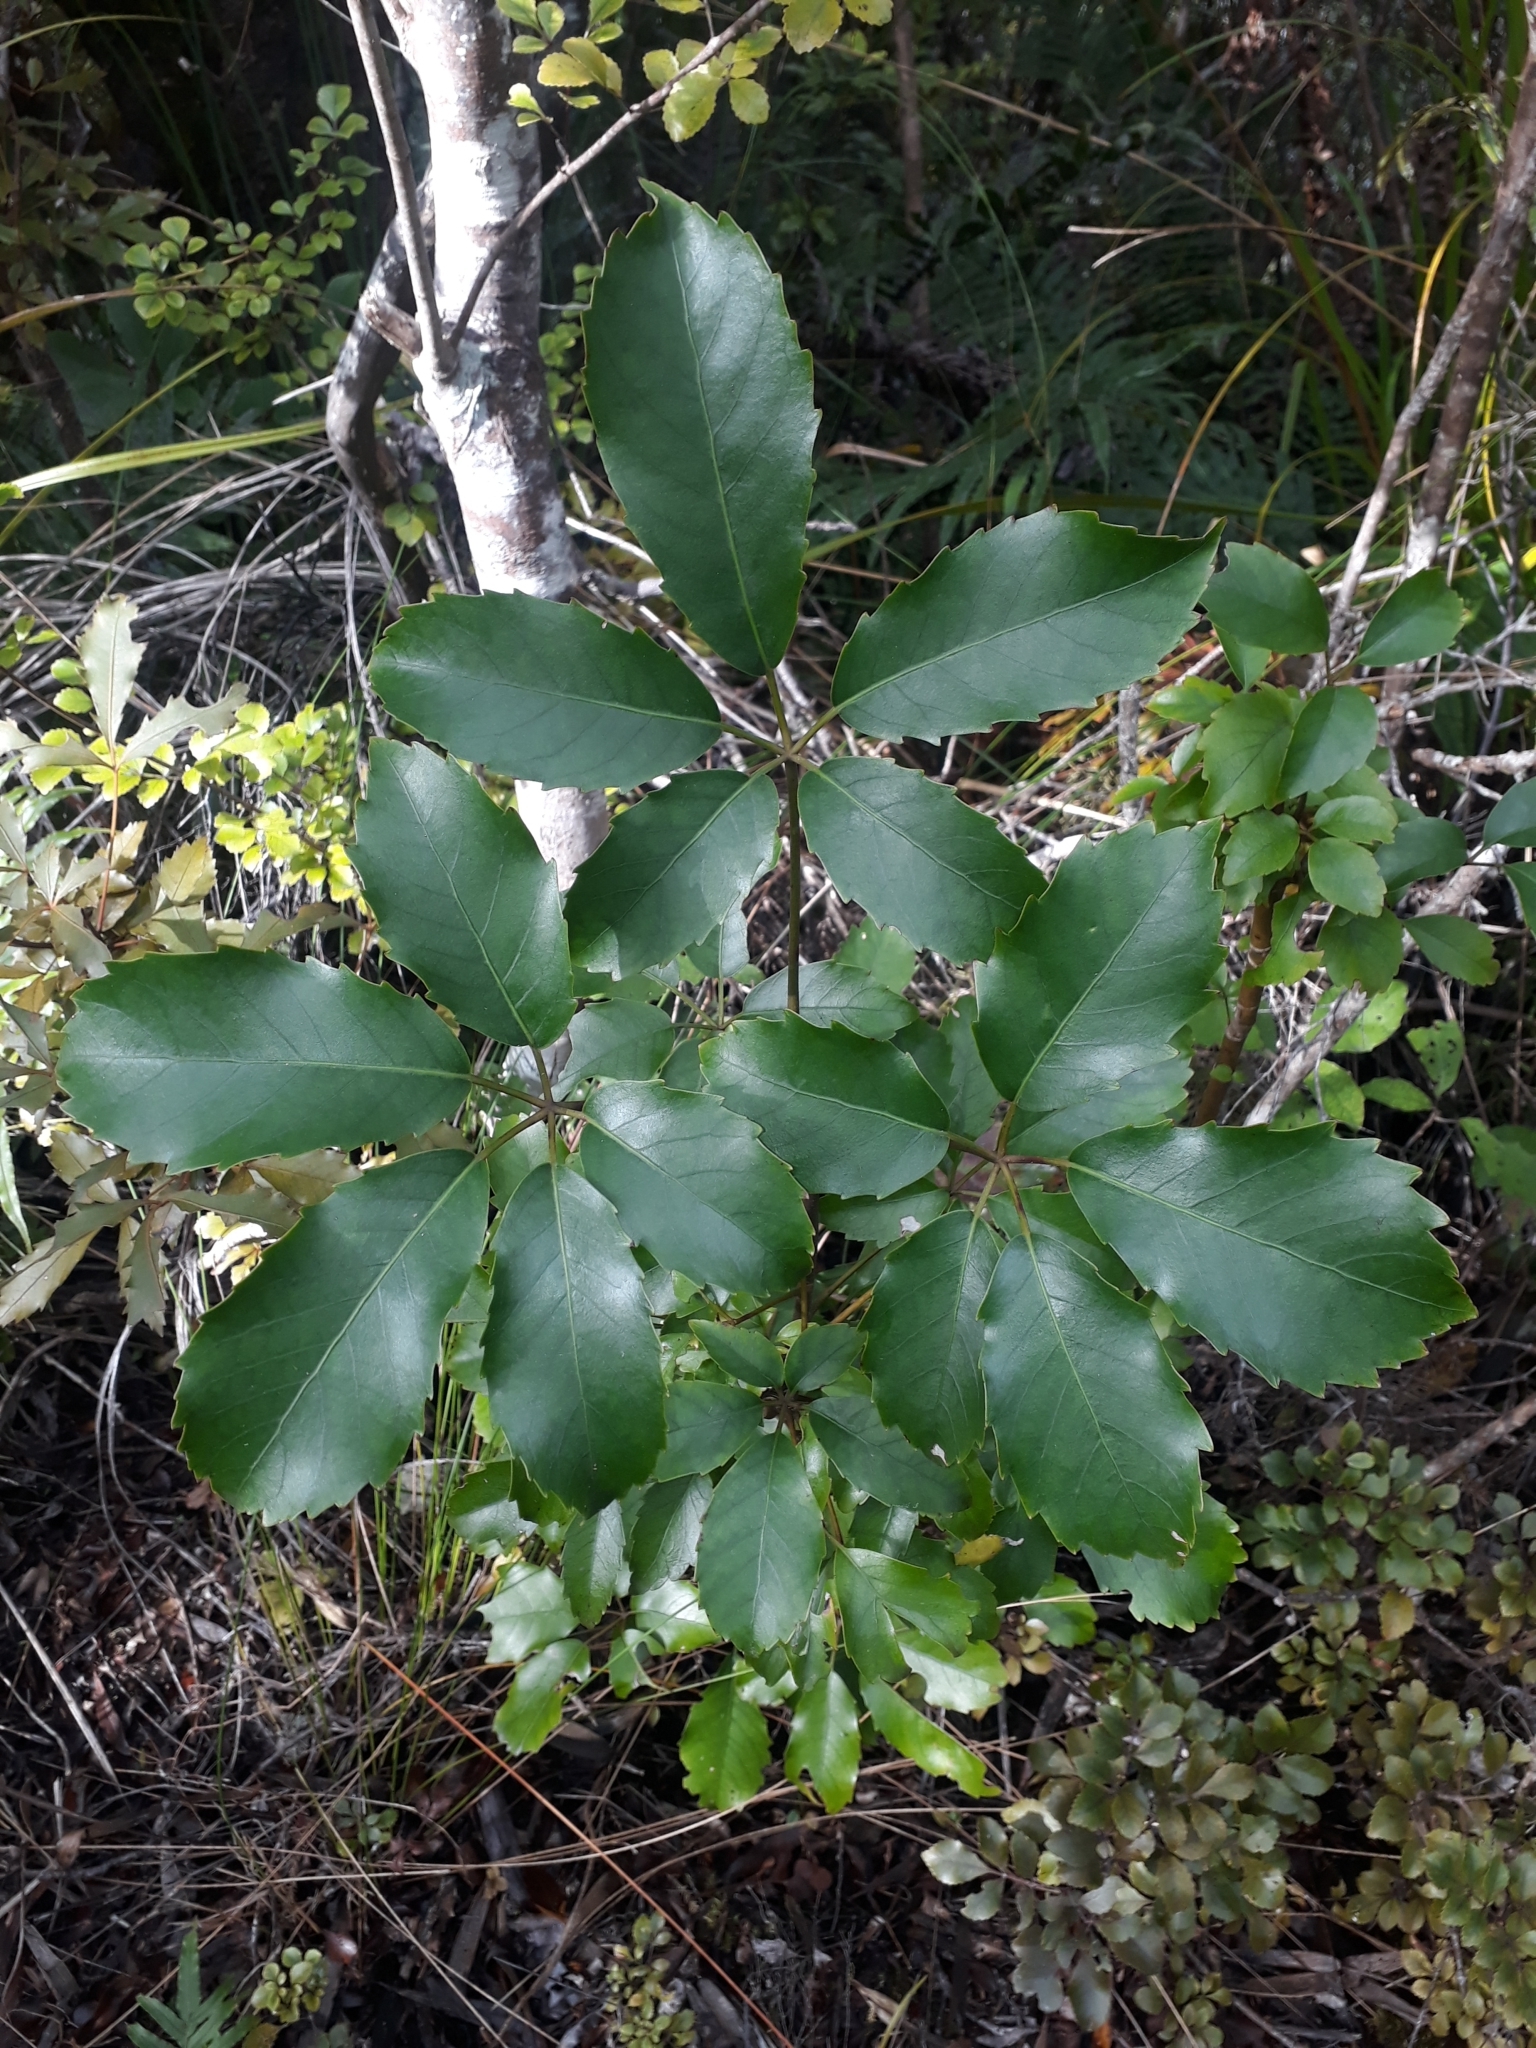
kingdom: Plantae
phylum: Tracheophyta
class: Magnoliopsida
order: Apiales
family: Araliaceae
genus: Neopanax
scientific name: Neopanax arboreus
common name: Five-fingers
